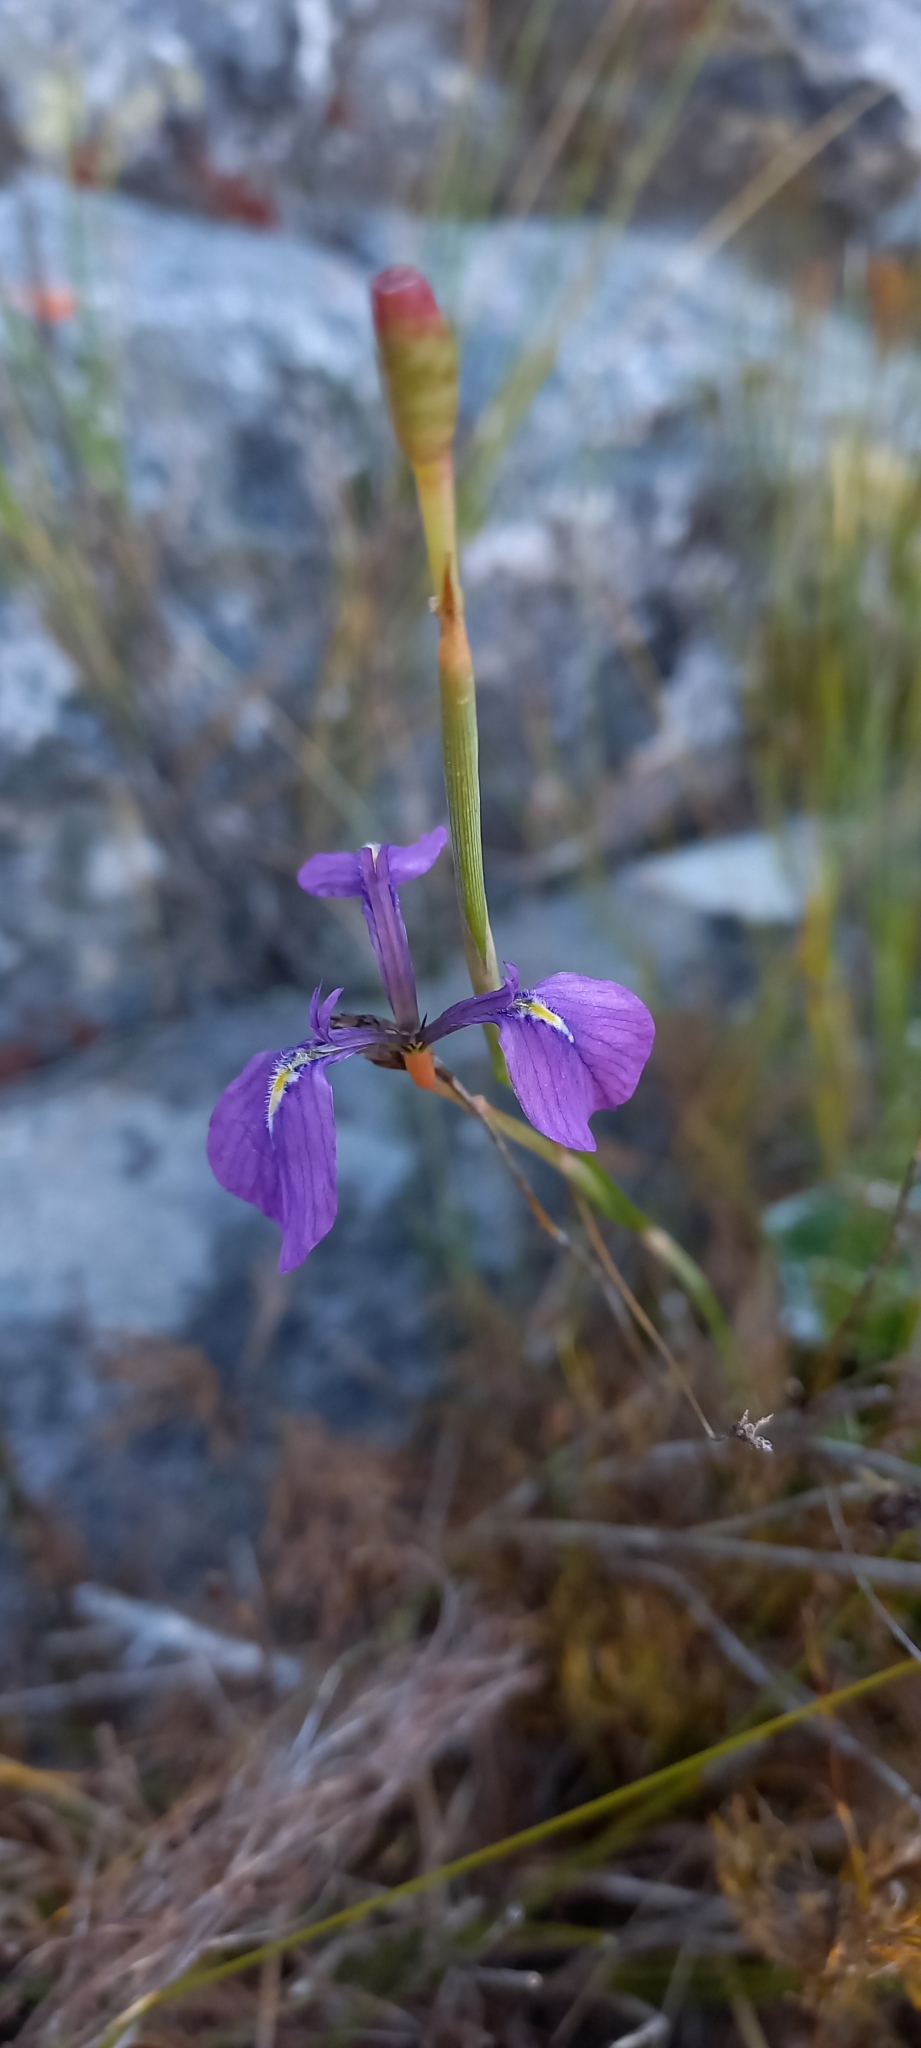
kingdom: Plantae
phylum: Tracheophyta
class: Liliopsida
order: Asparagales
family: Iridaceae
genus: Moraea
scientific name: Moraea tripetala
